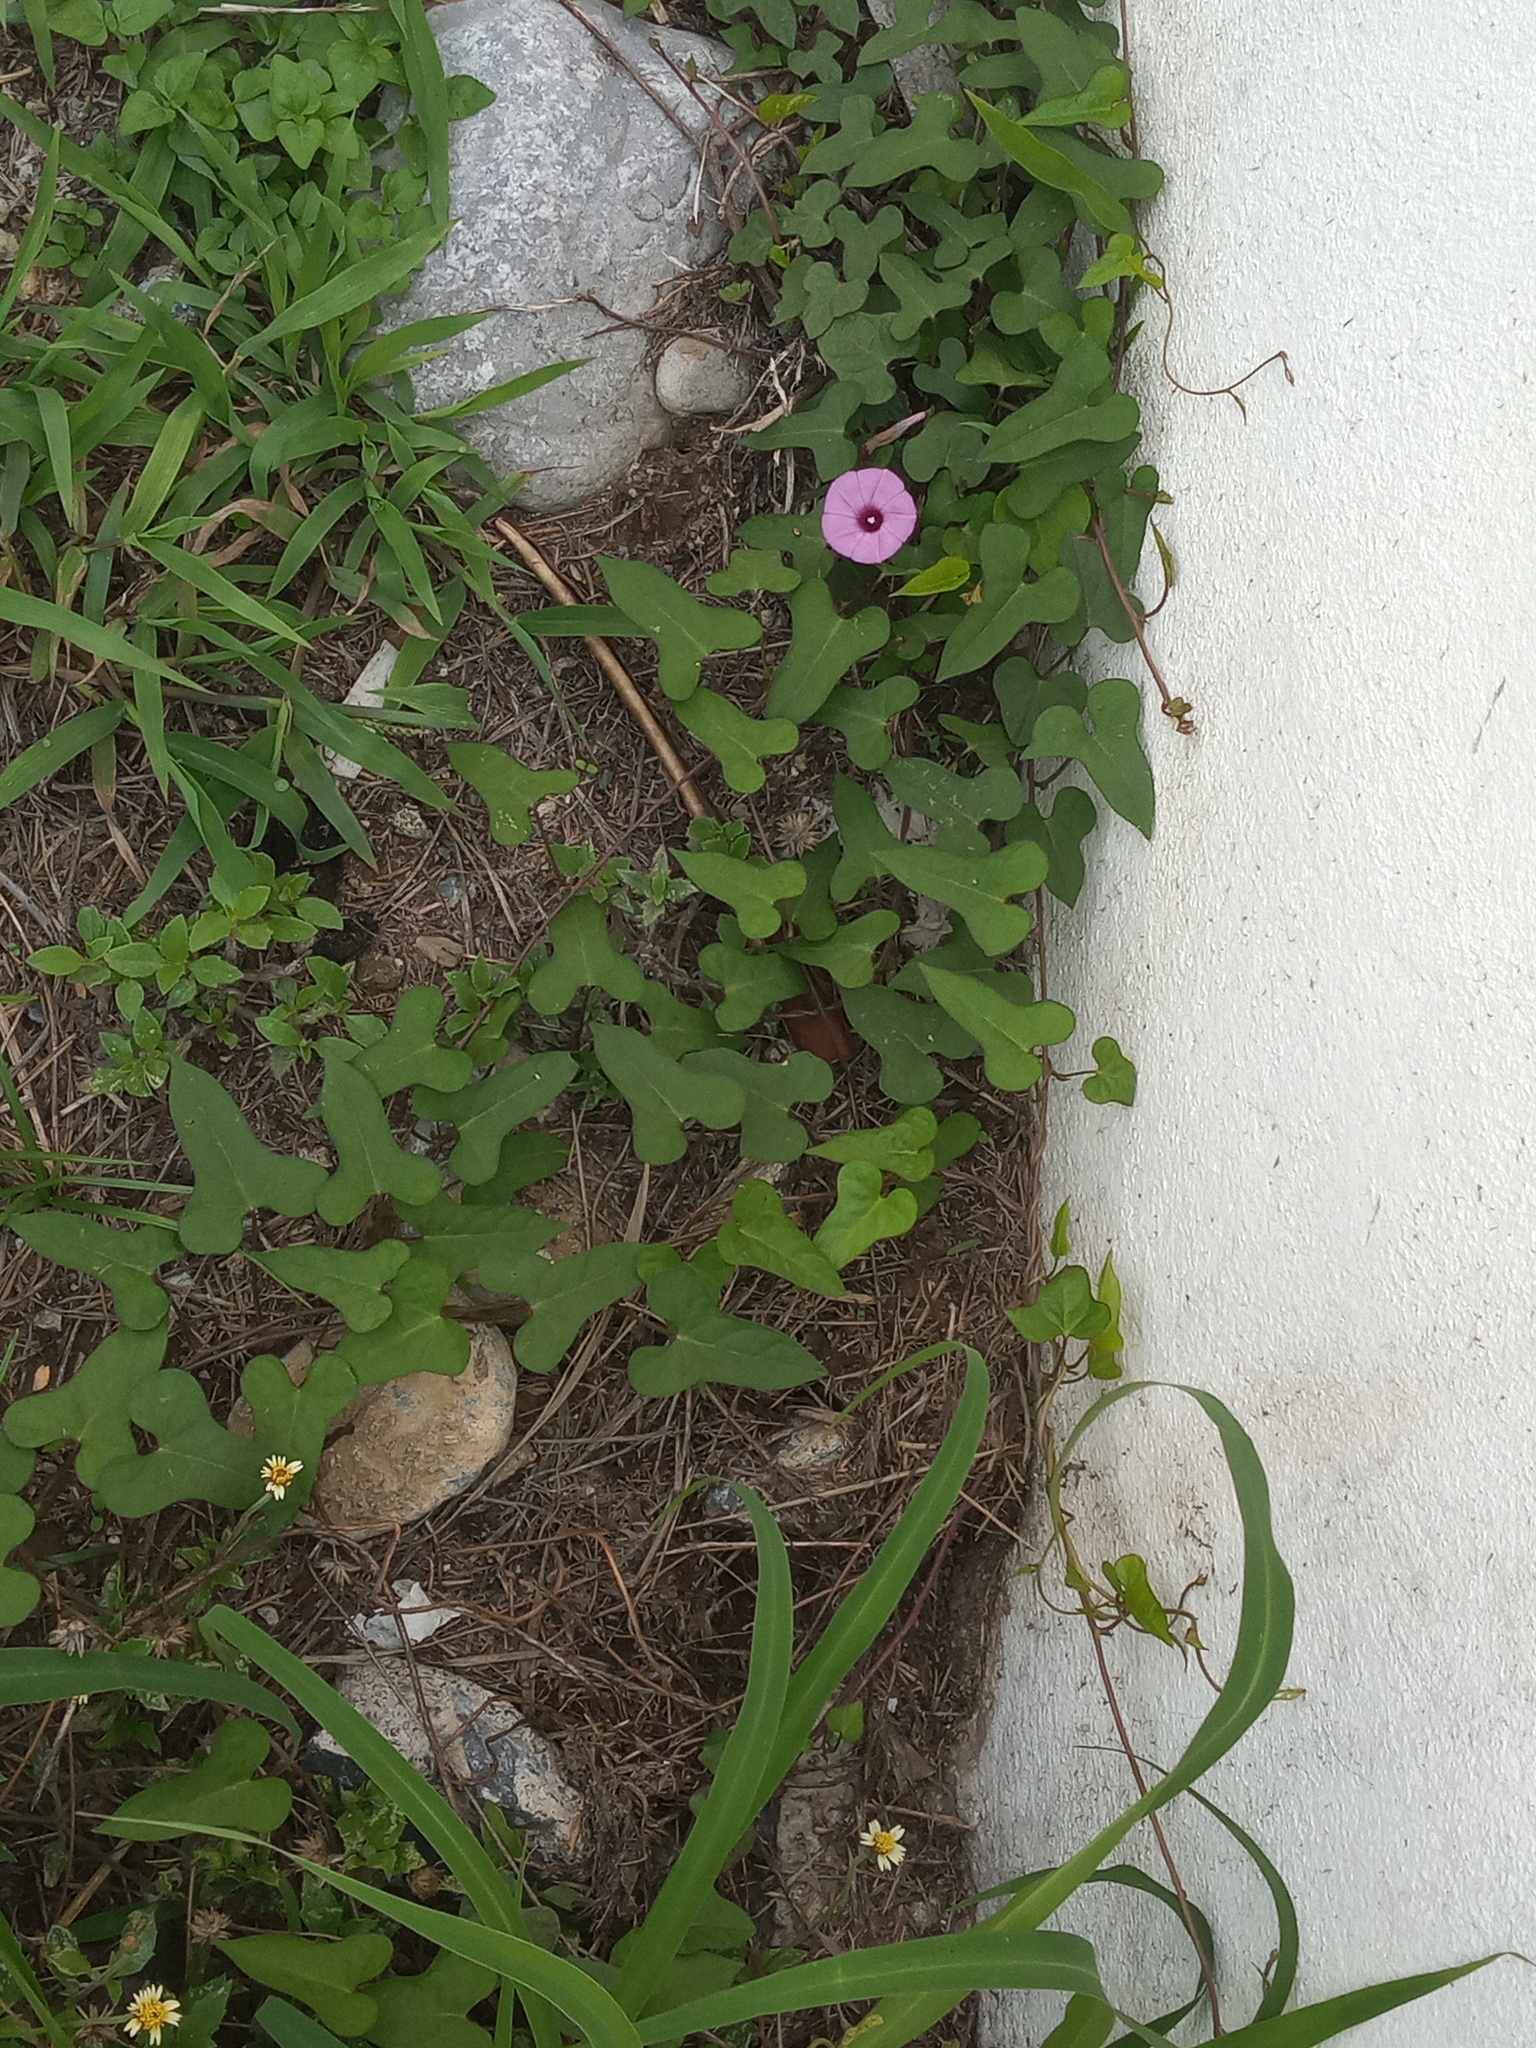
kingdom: Plantae
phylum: Tracheophyta
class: Magnoliopsida
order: Solanales
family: Convolvulaceae
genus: Ipomoea
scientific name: Ipomoea cordatotriloba
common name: Cotton morning glory
